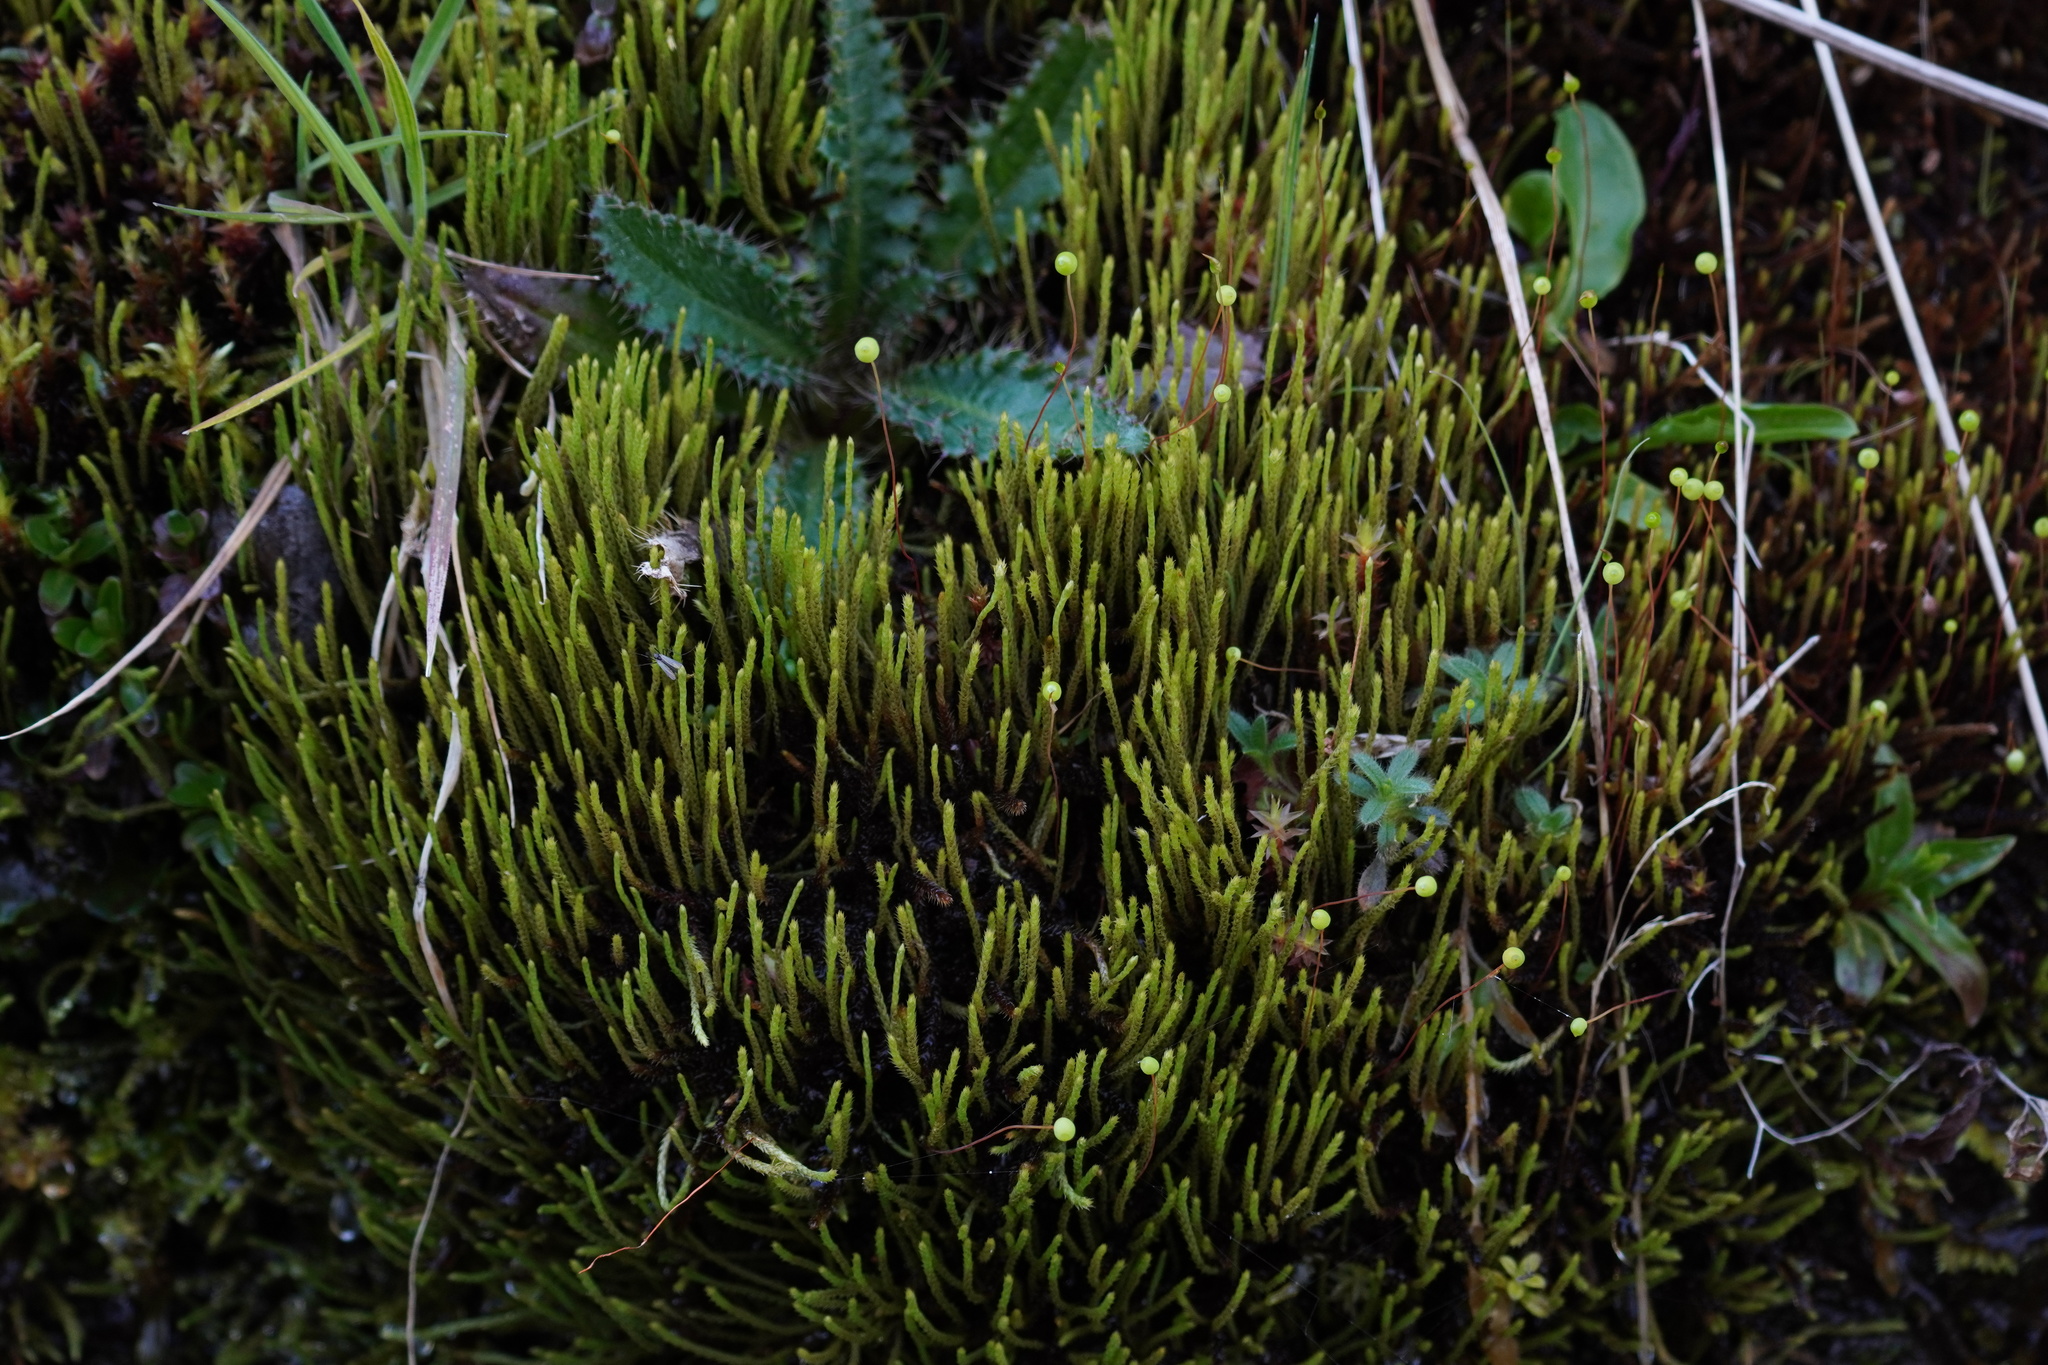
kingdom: Plantae
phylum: Bryophyta
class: Bryopsida
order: Bartramiales
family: Bartramiaceae
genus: Philonotis
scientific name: Philonotis fontana
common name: Fountain apple-moss
